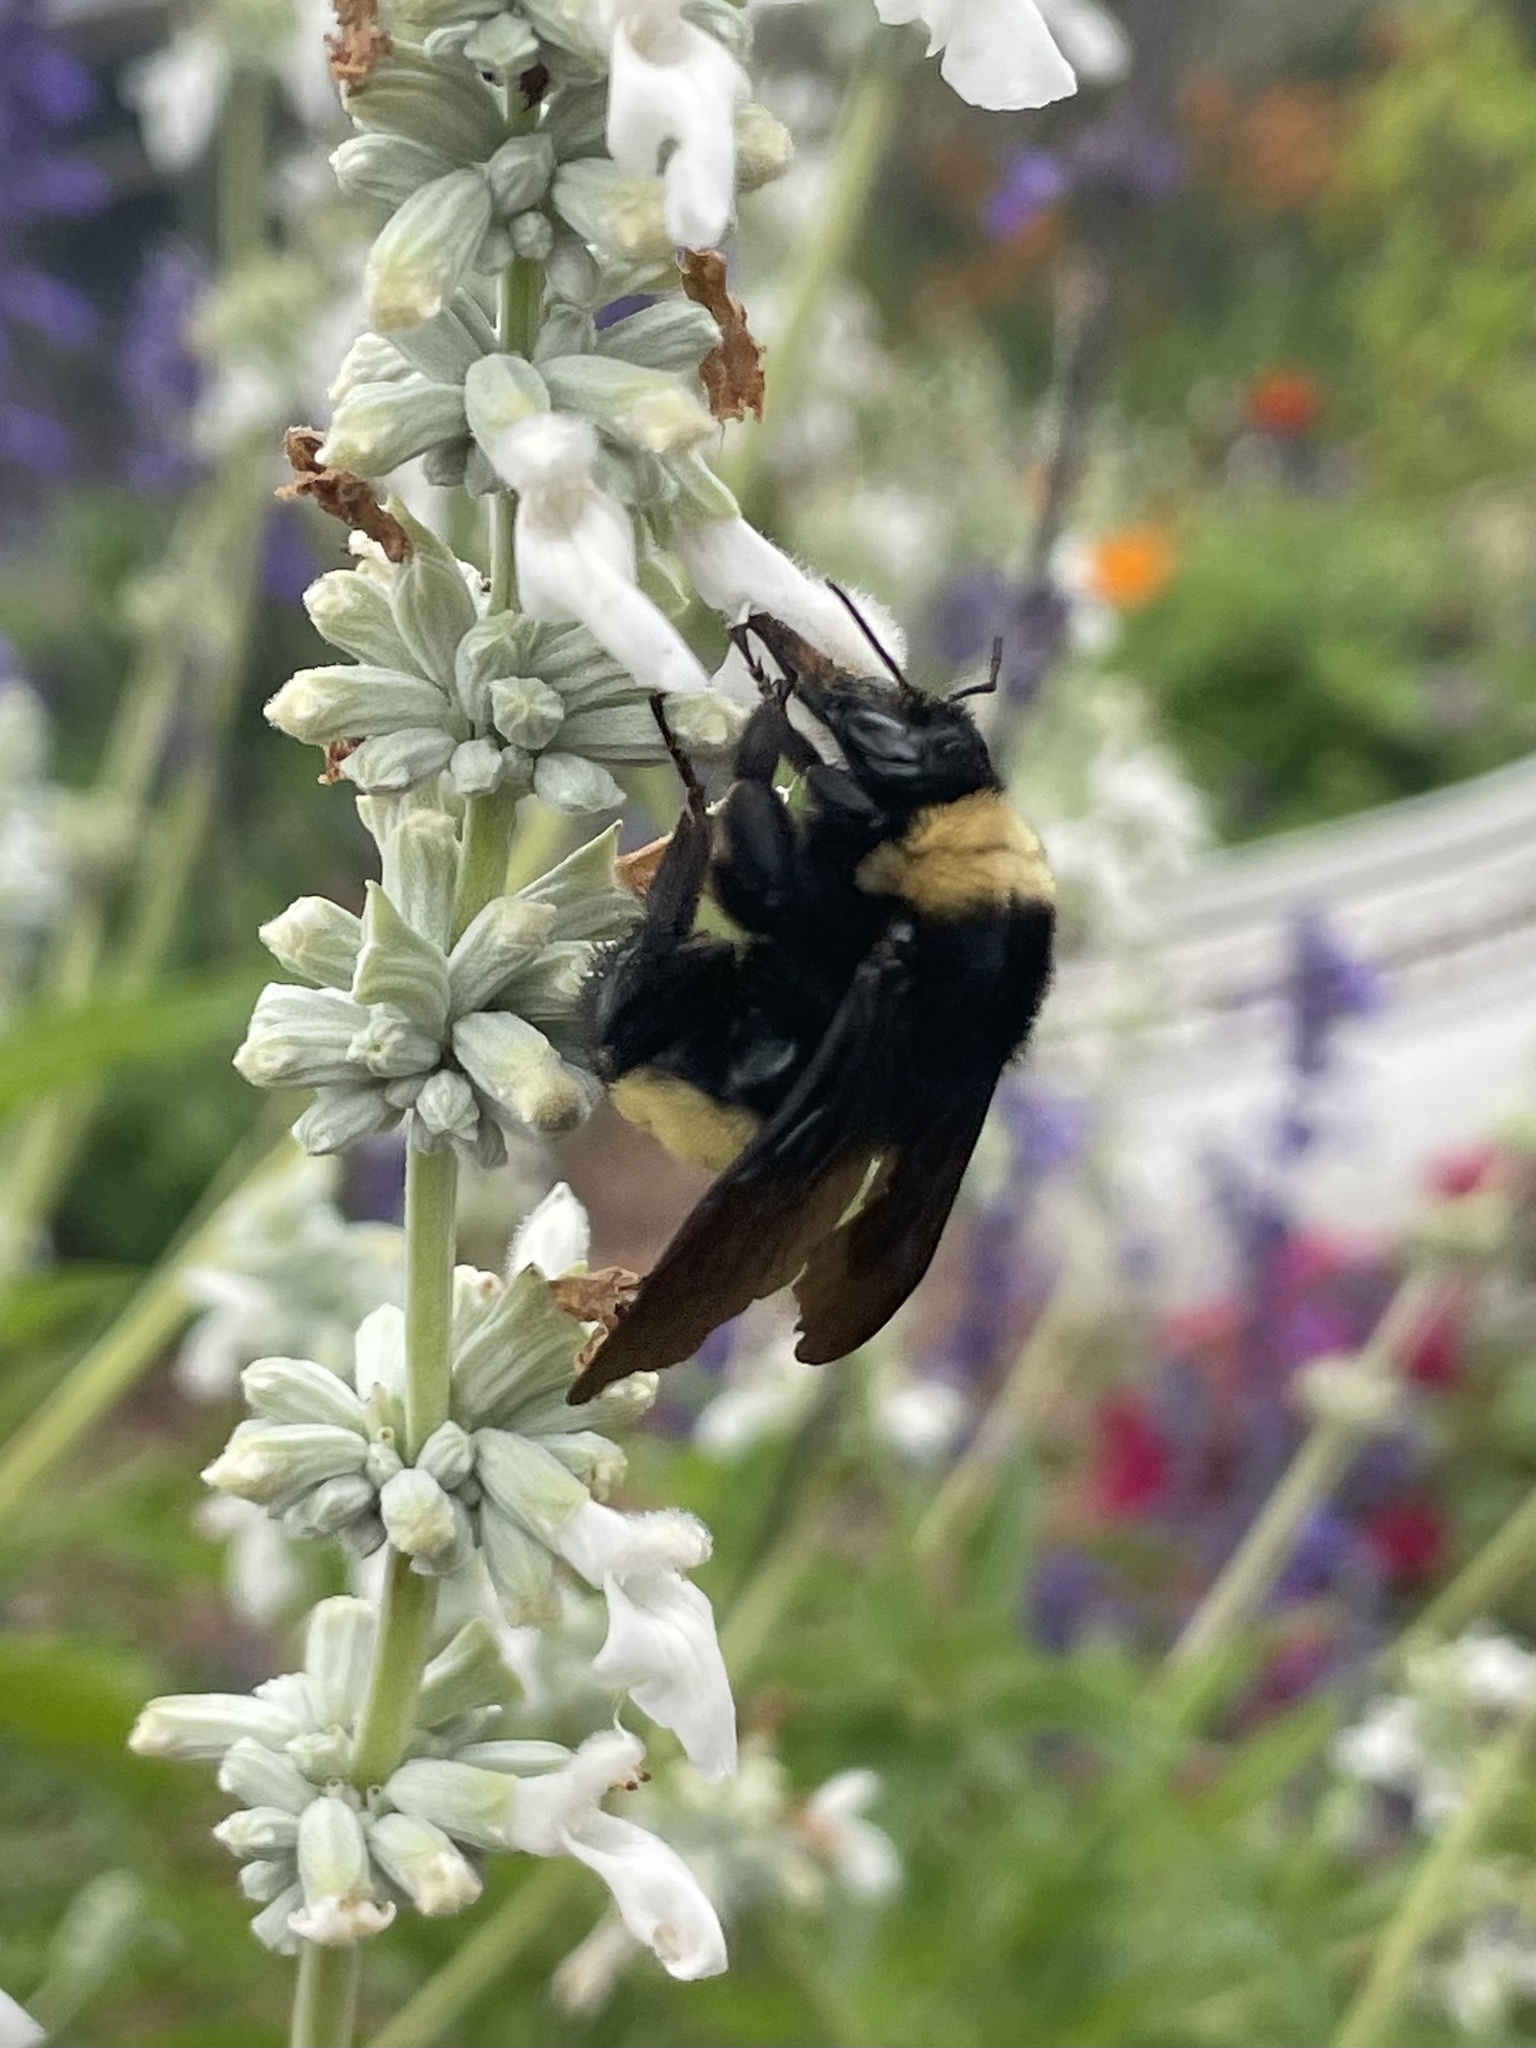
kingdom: Animalia
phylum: Arthropoda
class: Insecta
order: Hymenoptera
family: Apidae
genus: Bombus
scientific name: Bombus pensylvanicus
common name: Bumble bee
